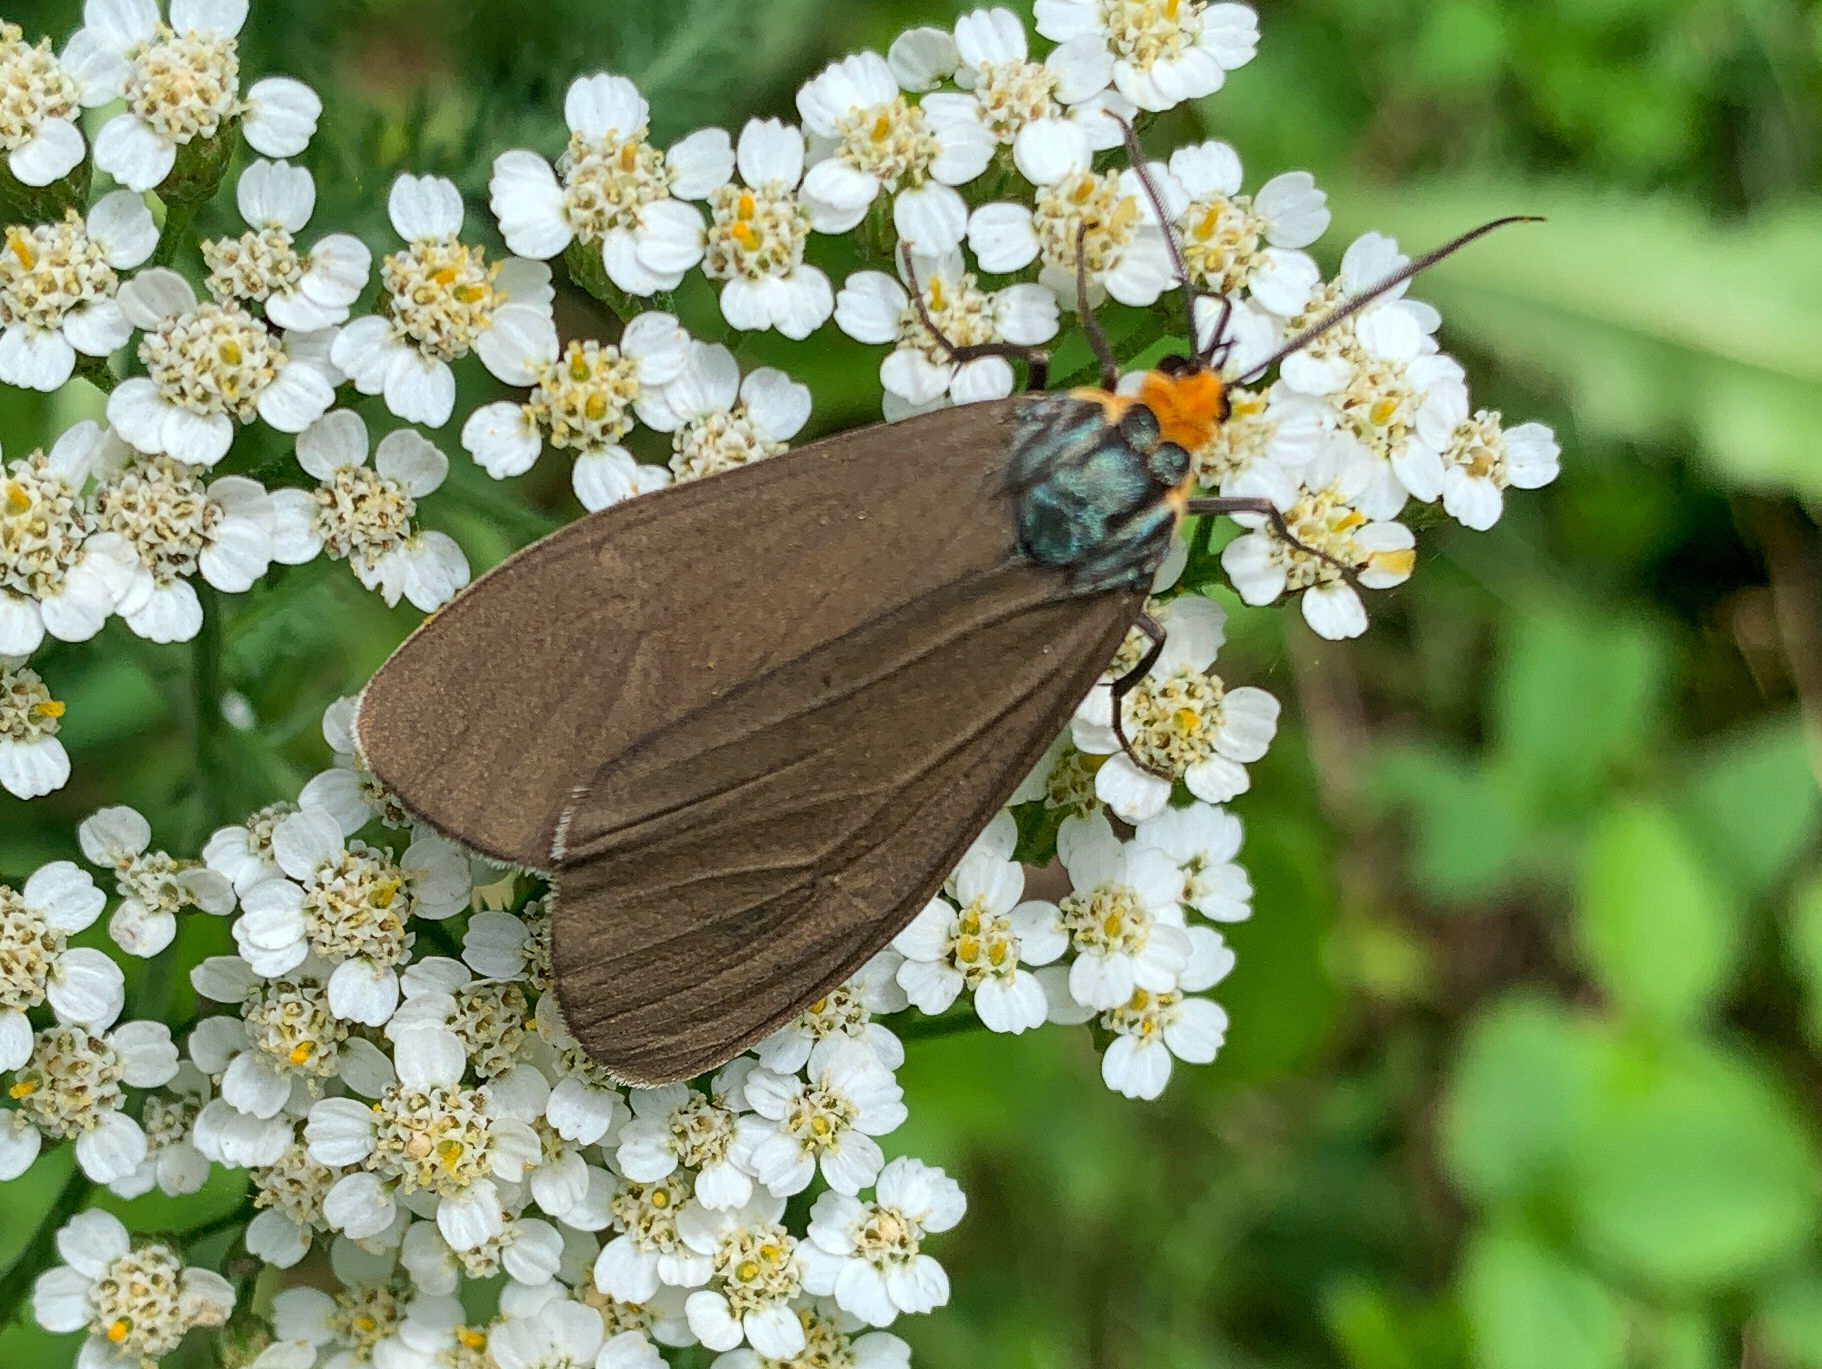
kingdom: Animalia
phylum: Arthropoda
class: Insecta
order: Lepidoptera
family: Erebidae
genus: Ctenucha
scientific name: Ctenucha virginica
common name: Virginia ctenucha moth
